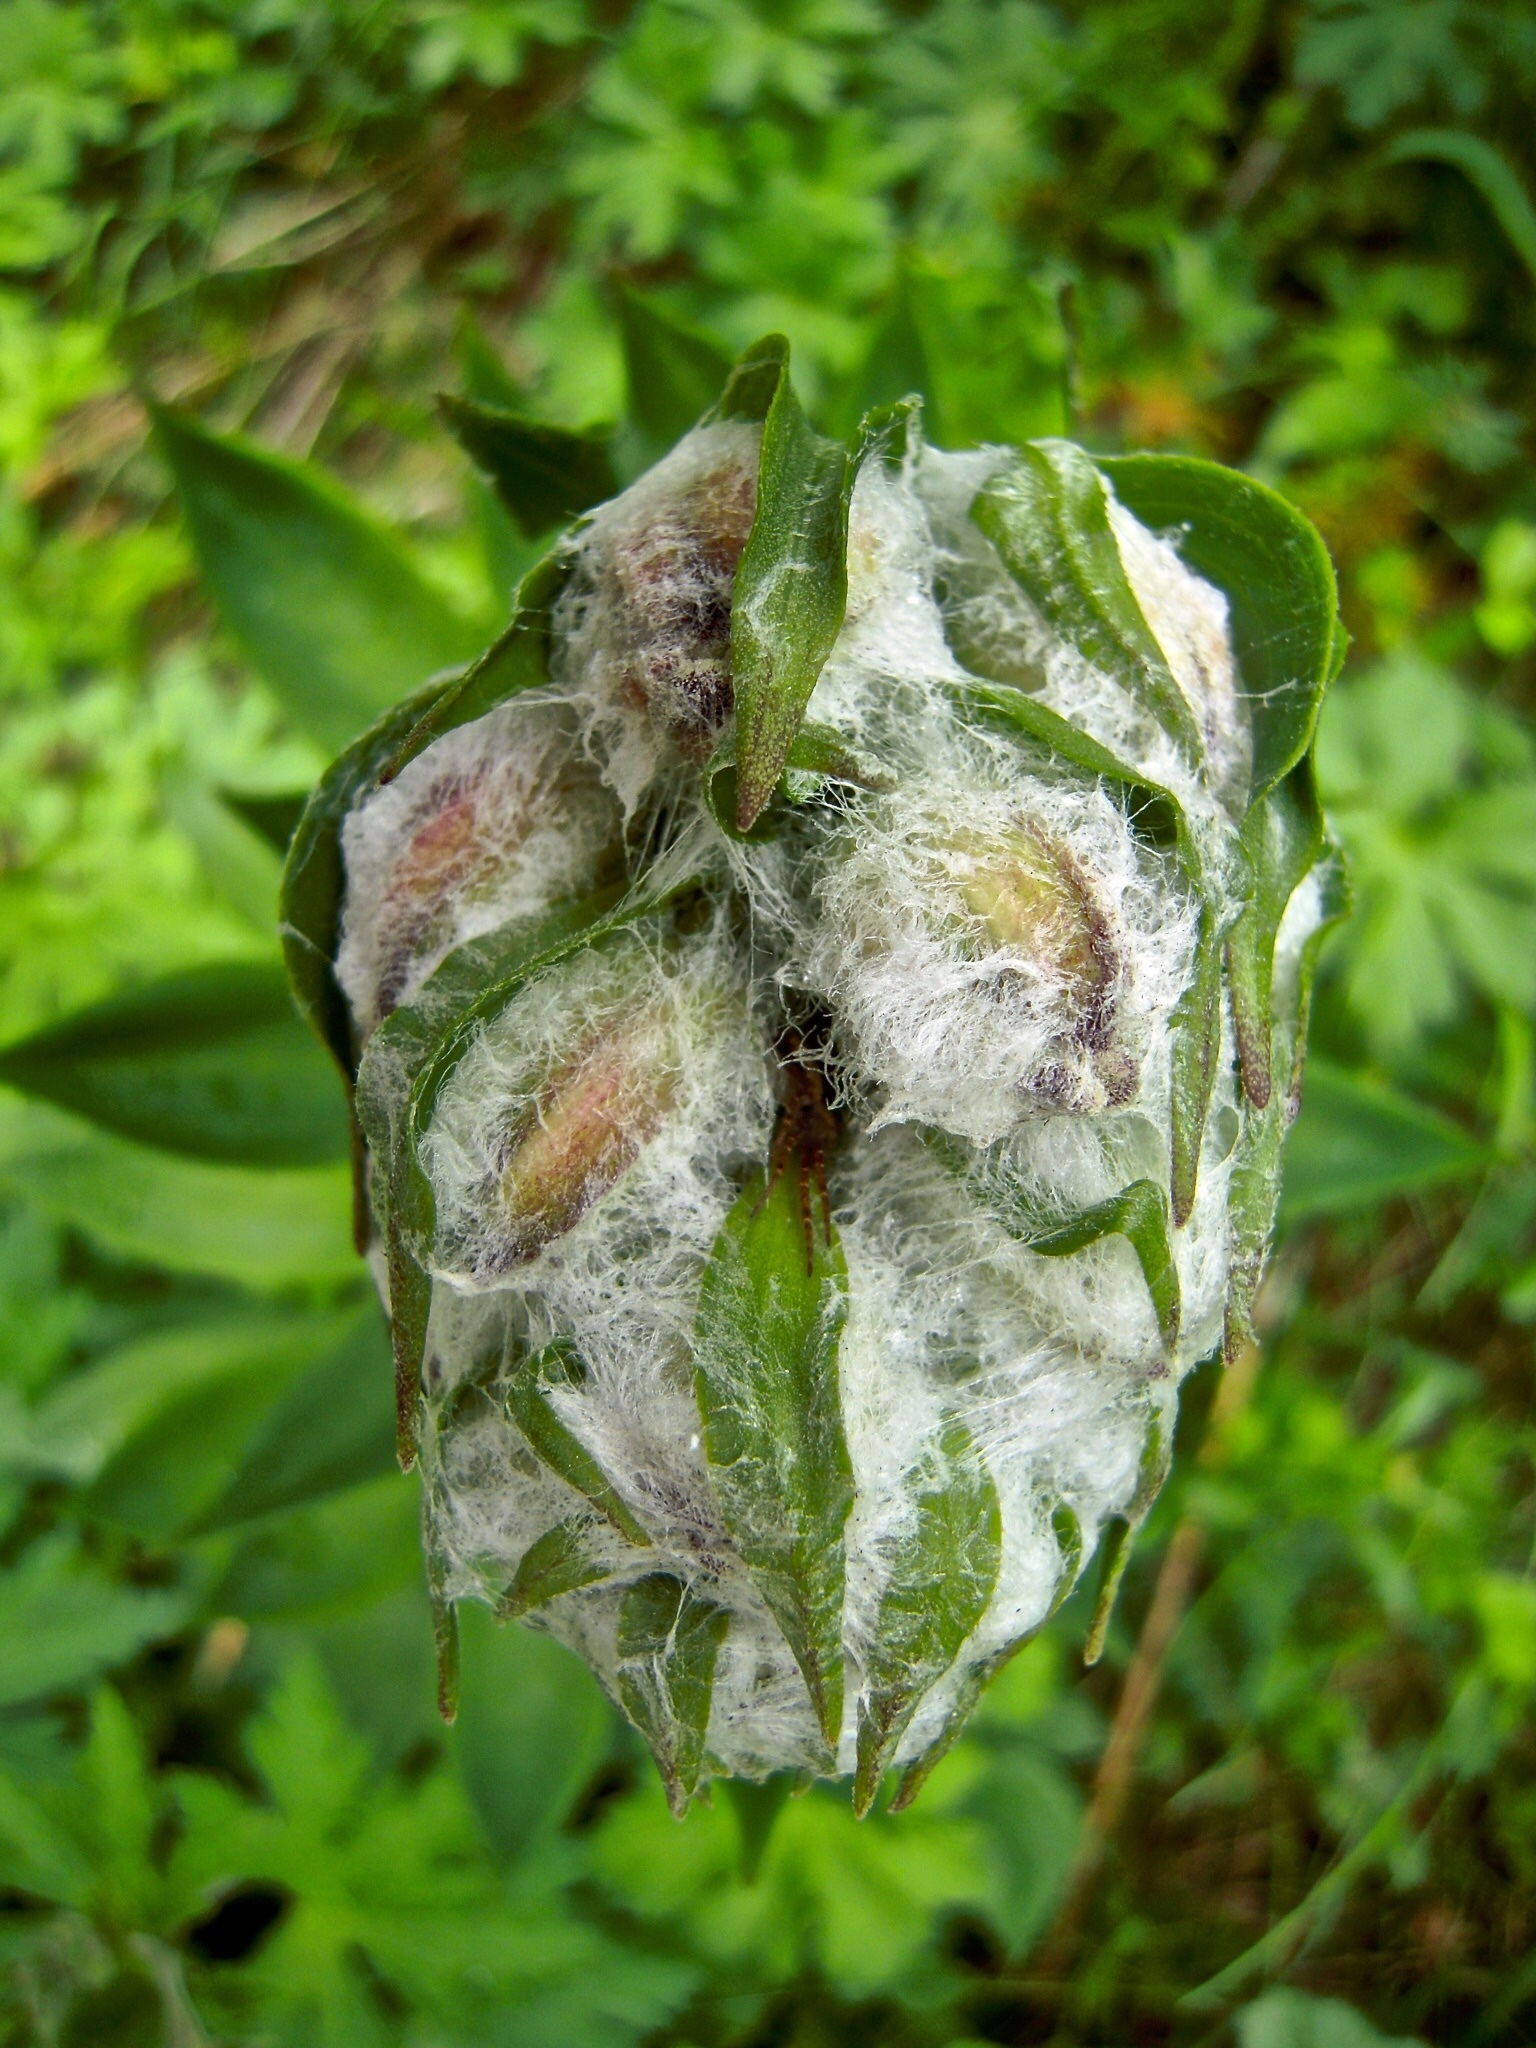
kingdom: Plantae
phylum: Tracheophyta
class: Liliopsida
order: Liliales
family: Liliaceae
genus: Lilium
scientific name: Lilium martagon
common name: Martagon lily
